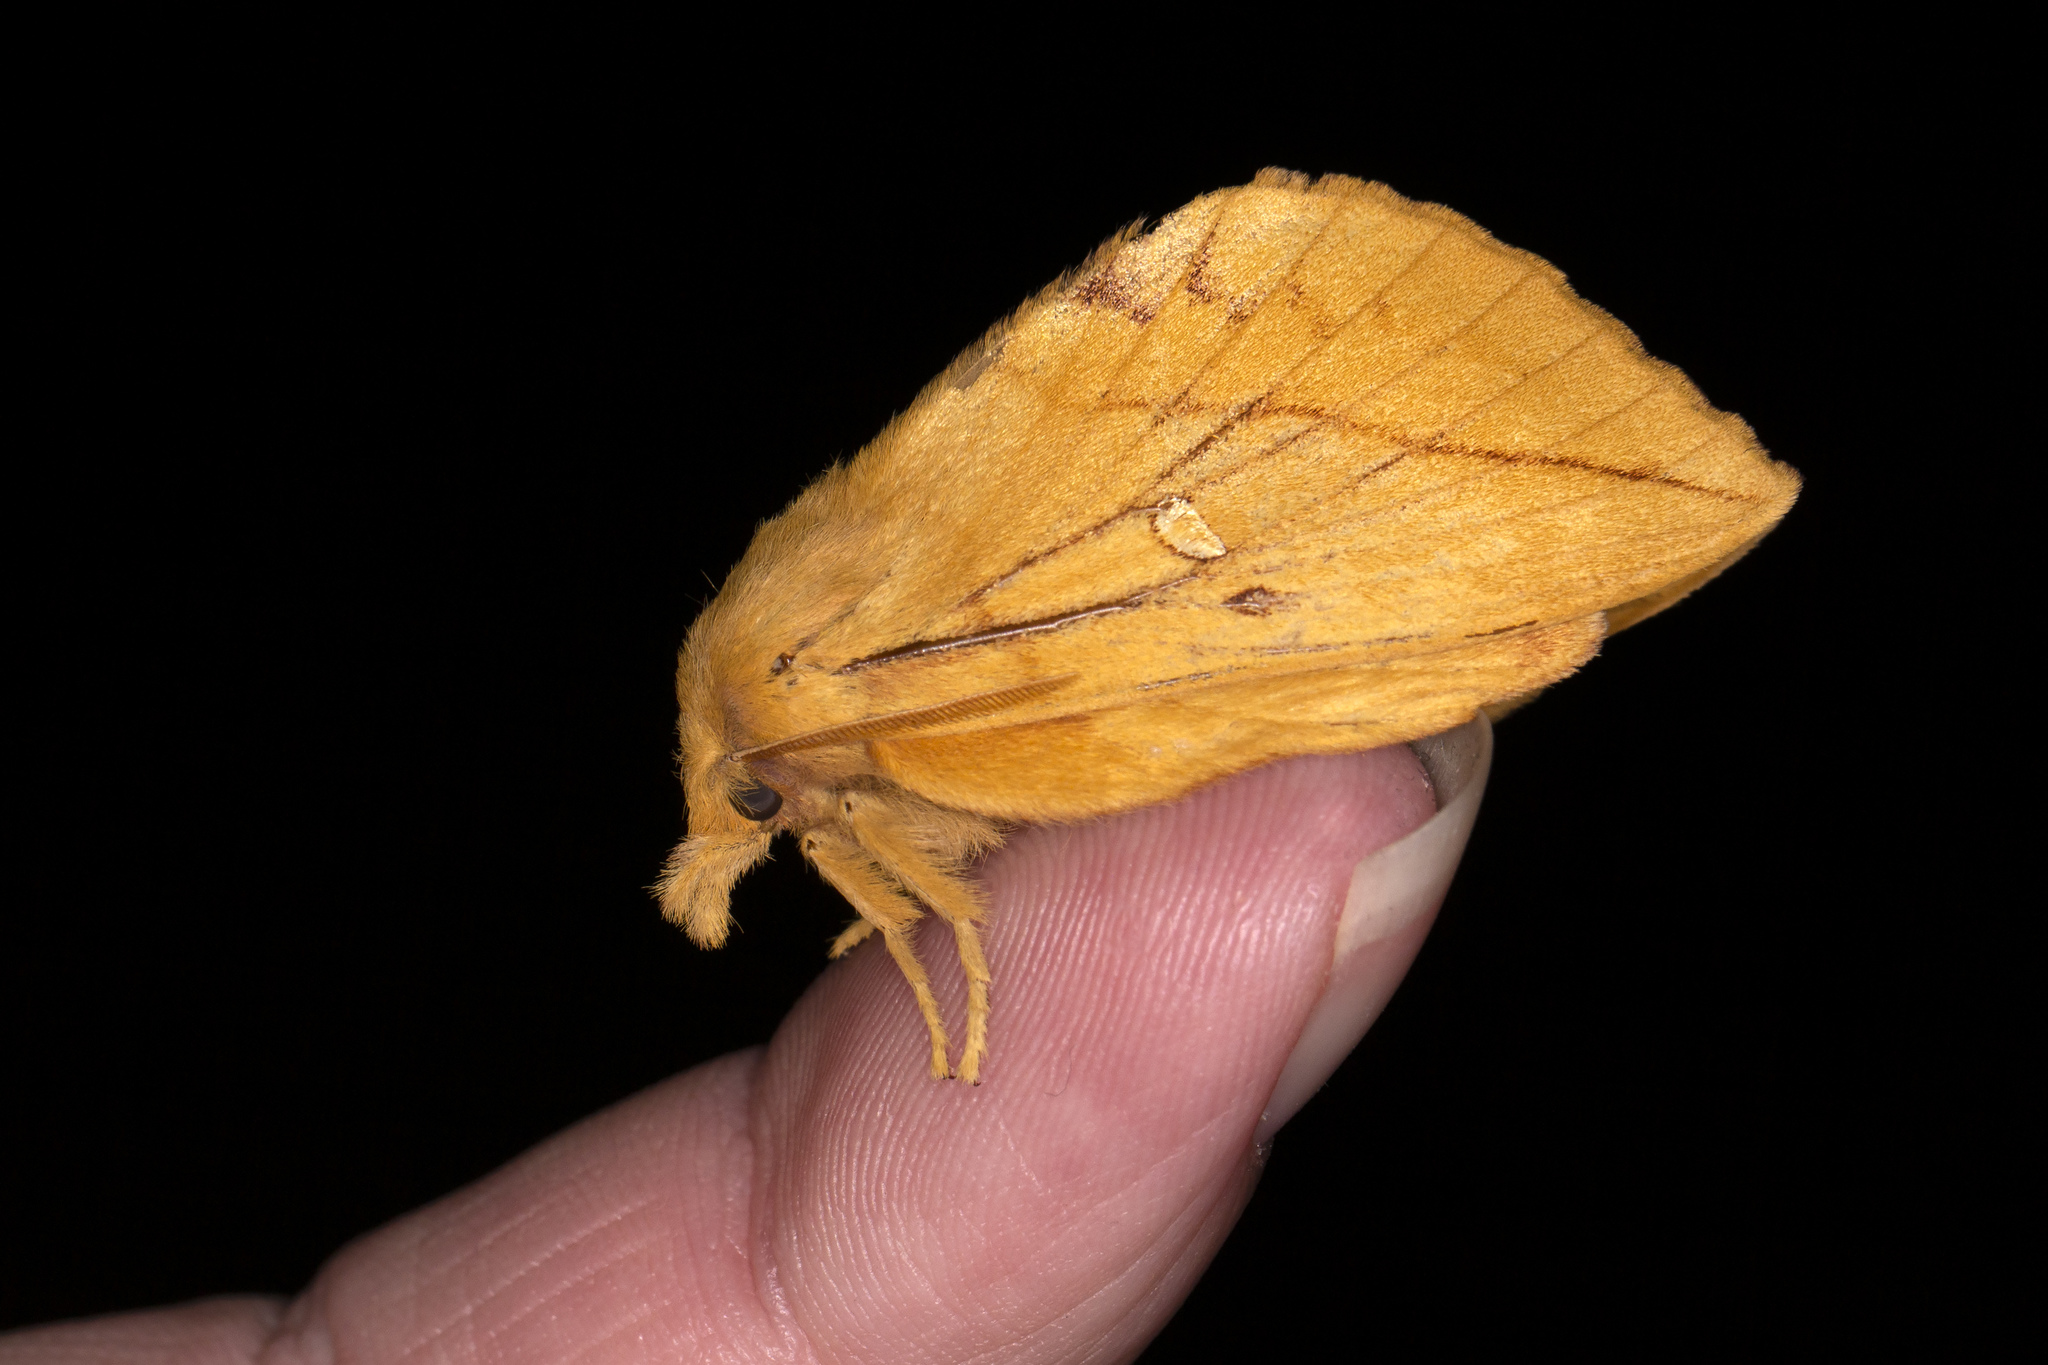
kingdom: Animalia
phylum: Arthropoda
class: Insecta
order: Lepidoptera
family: Lasiocampidae
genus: Euthrix
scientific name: Euthrix potatoria
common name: Drinker
